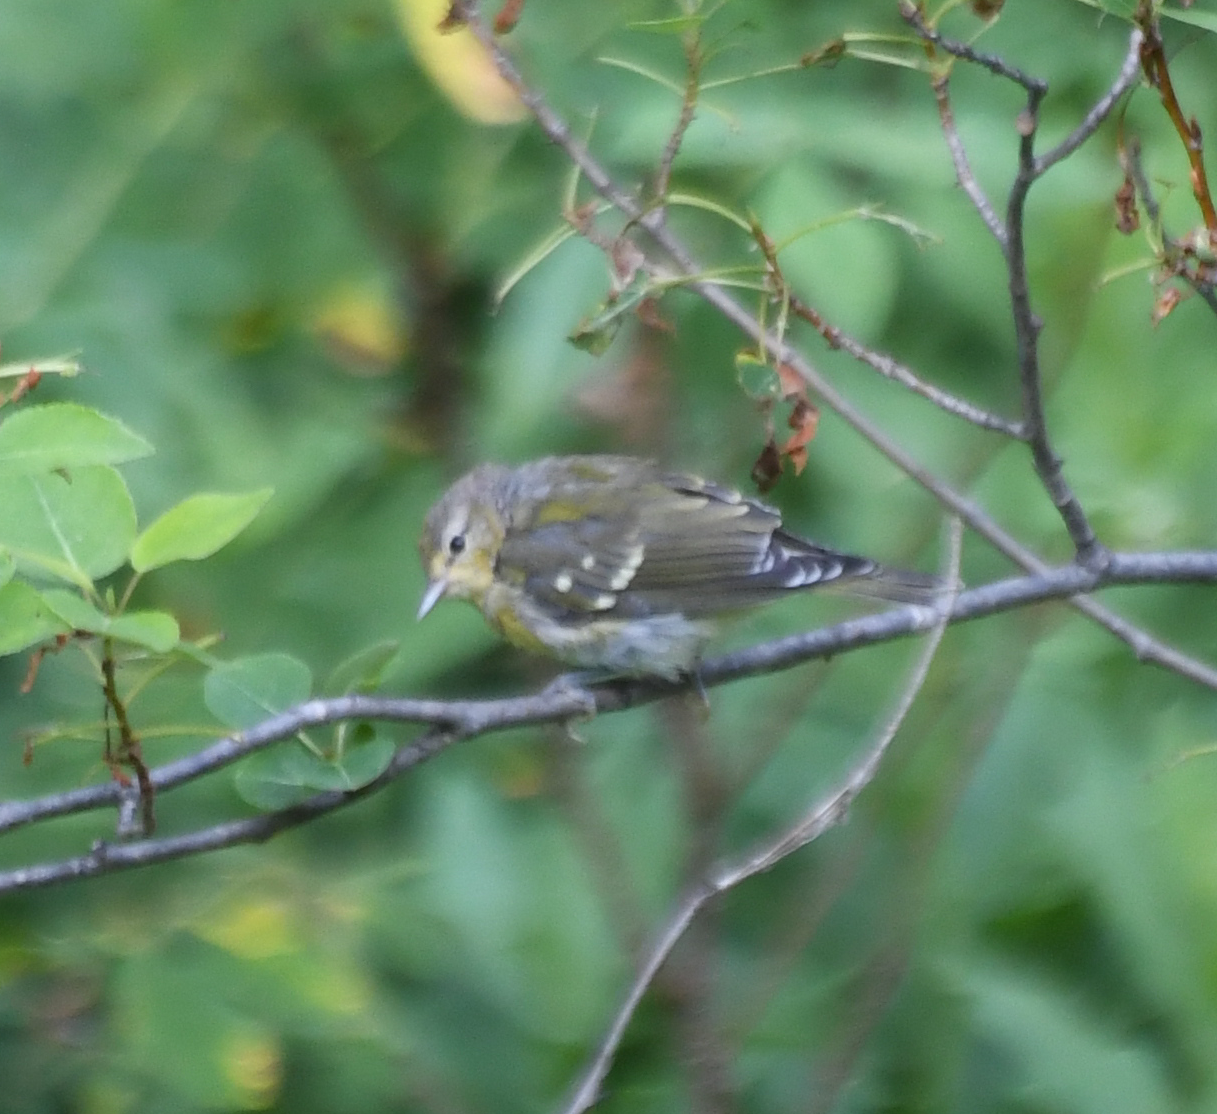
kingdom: Animalia
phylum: Chordata
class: Aves
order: Passeriformes
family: Parulidae
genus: Leiothlypis
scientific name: Leiothlypis peregrina
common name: Tennessee warbler
